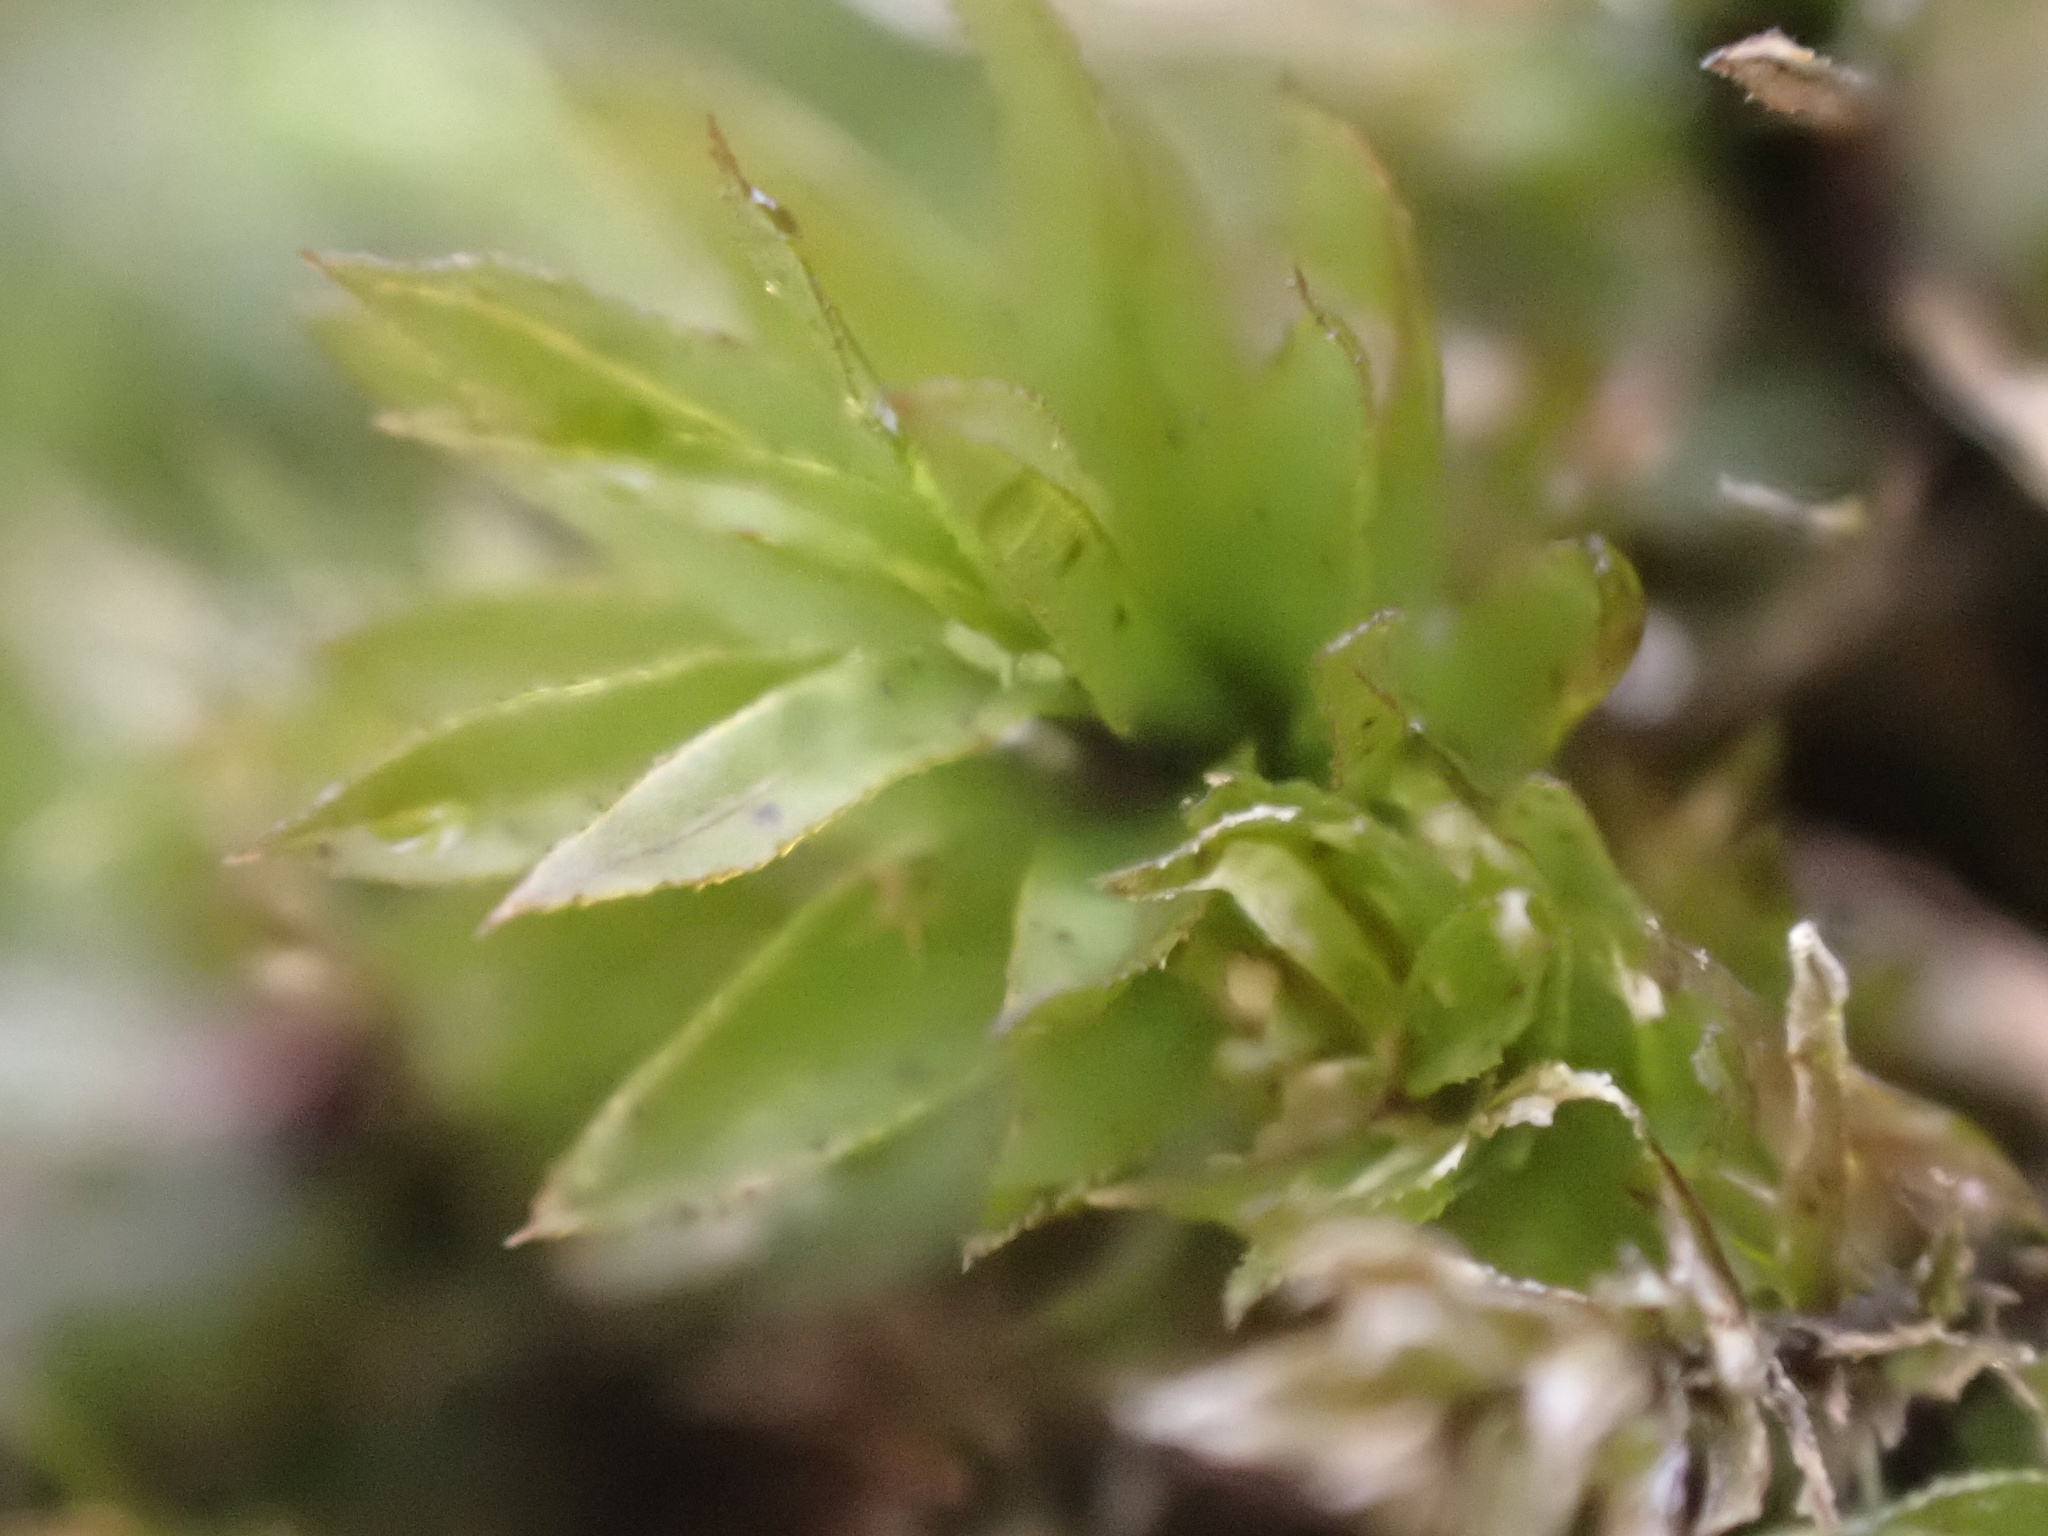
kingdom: Plantae
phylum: Bryophyta
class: Bryopsida
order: Bryales
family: Mniaceae
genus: Mnium
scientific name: Mnium hornum
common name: Swan's-neck leafy moss
